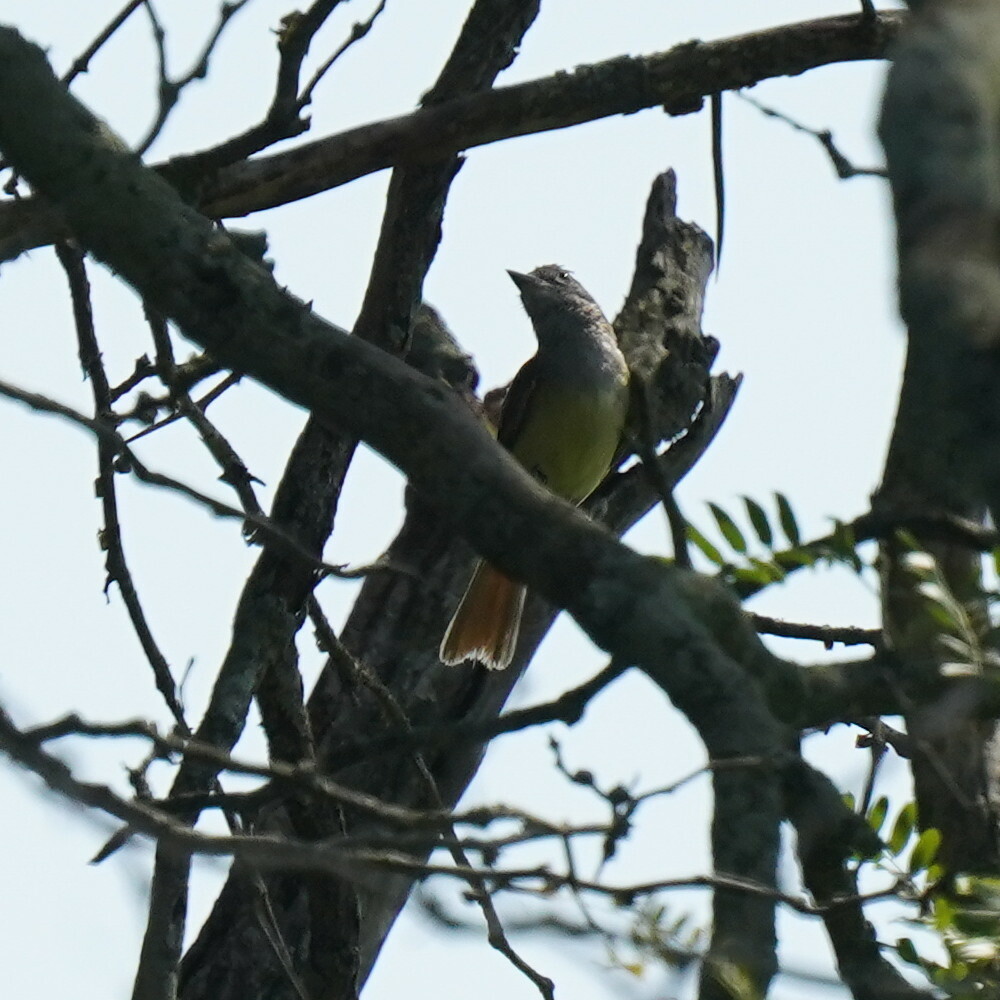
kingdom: Animalia
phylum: Chordata
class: Aves
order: Passeriformes
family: Tyrannidae
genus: Myiarchus
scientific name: Myiarchus crinitus
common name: Great crested flycatcher
